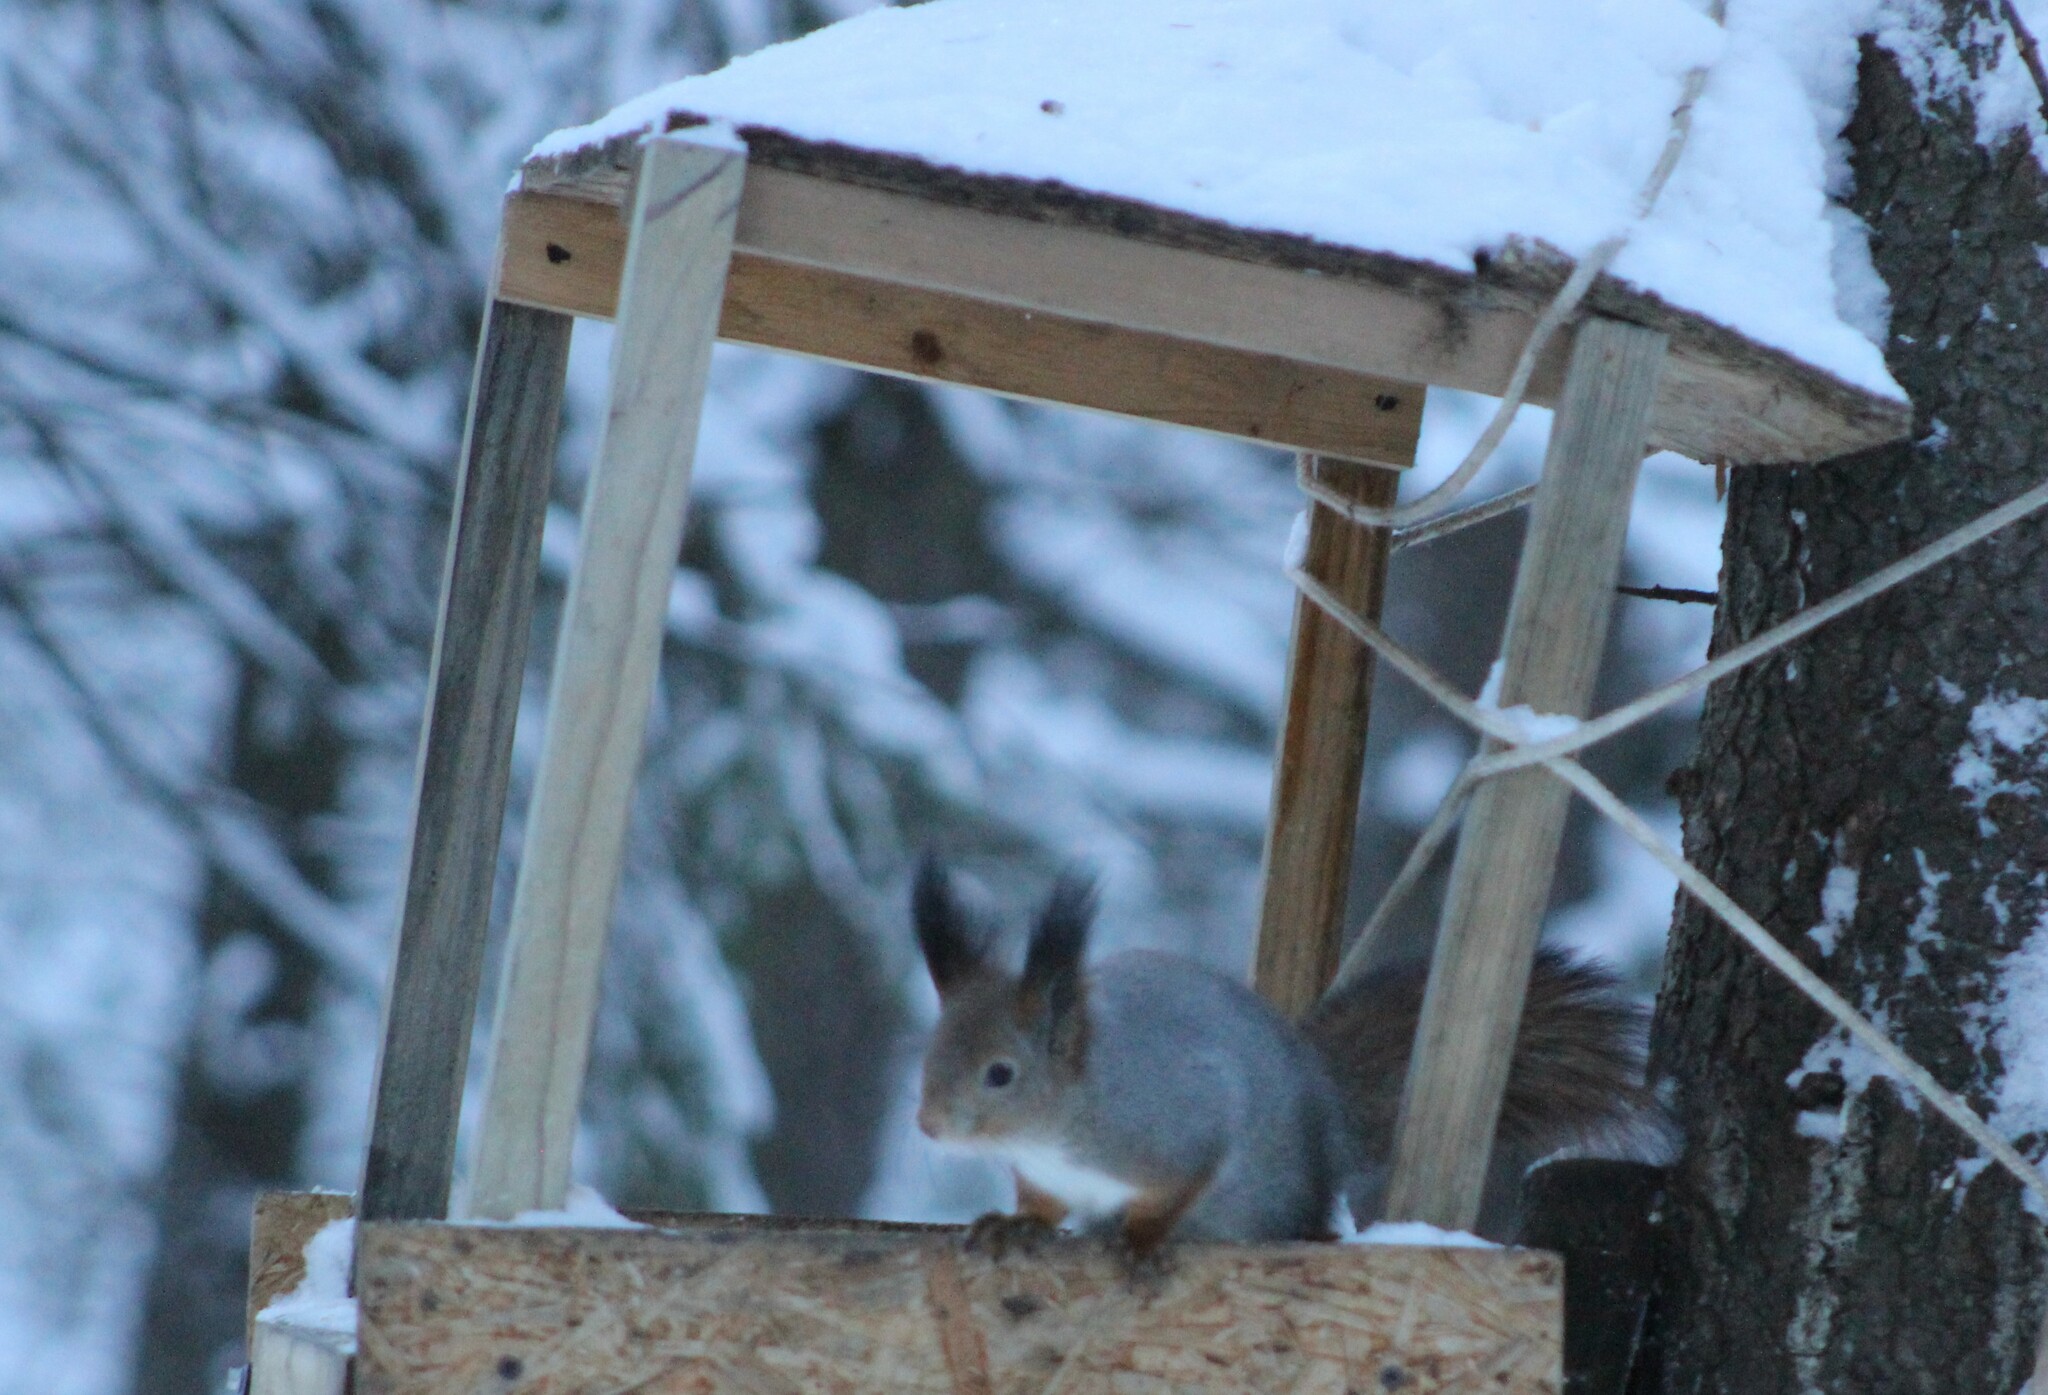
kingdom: Animalia
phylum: Chordata
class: Mammalia
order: Rodentia
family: Sciuridae
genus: Sciurus
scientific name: Sciurus vulgaris
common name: Eurasian red squirrel
